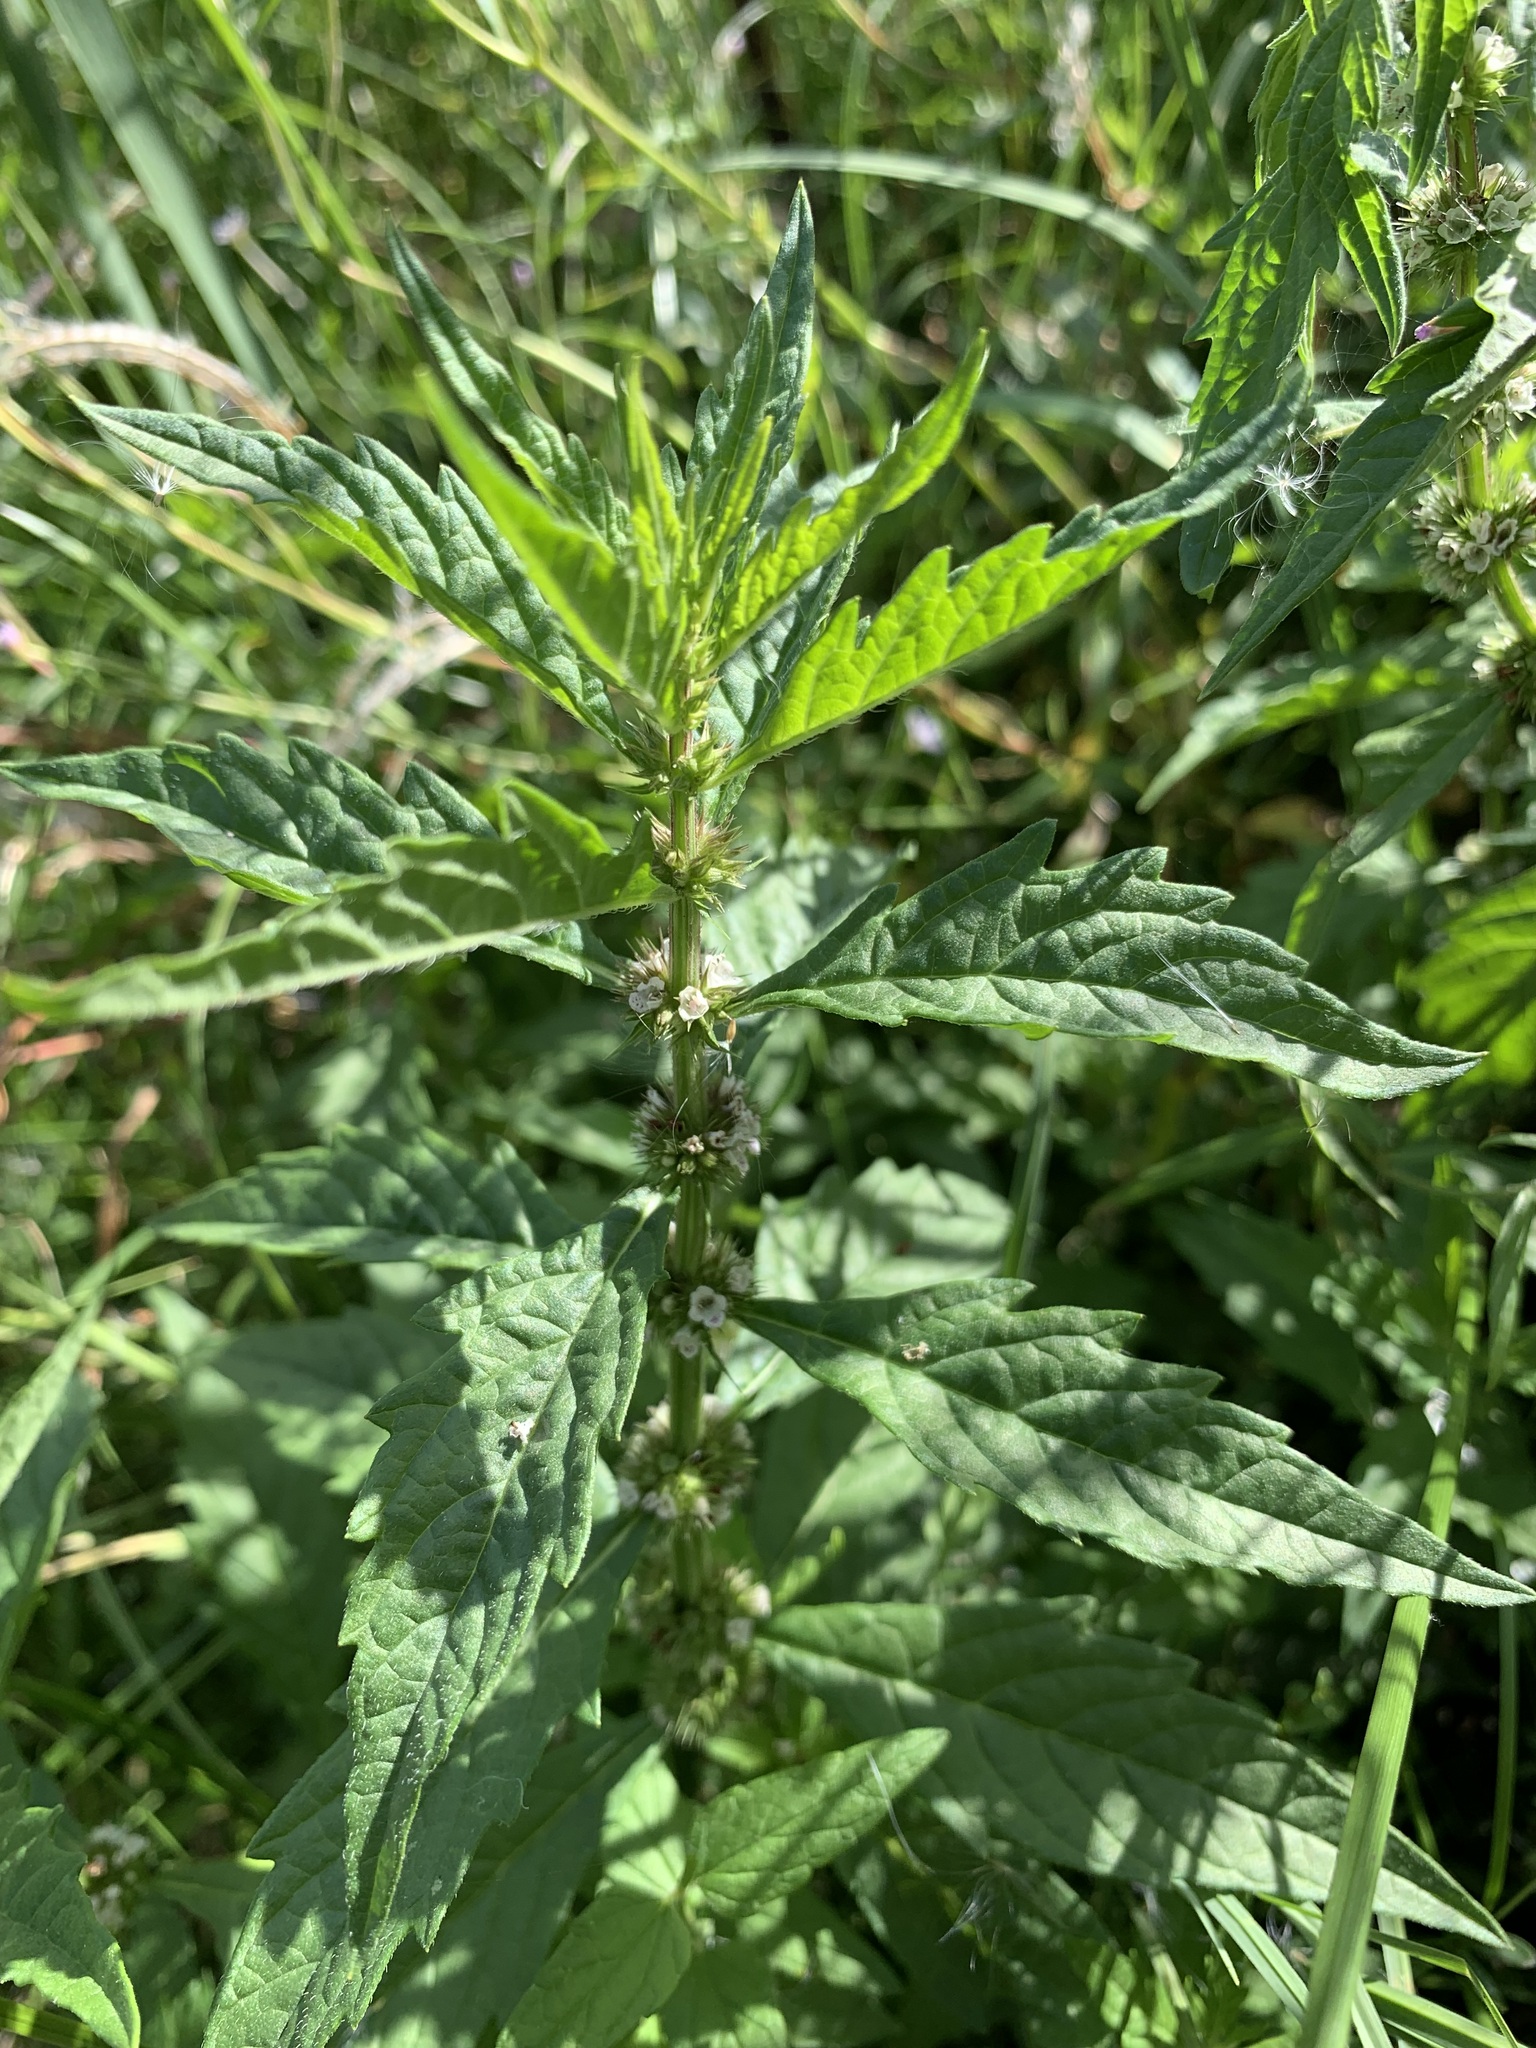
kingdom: Plantae
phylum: Tracheophyta
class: Magnoliopsida
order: Lamiales
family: Lamiaceae
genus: Lycopus
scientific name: Lycopus europaeus
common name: European bugleweed
